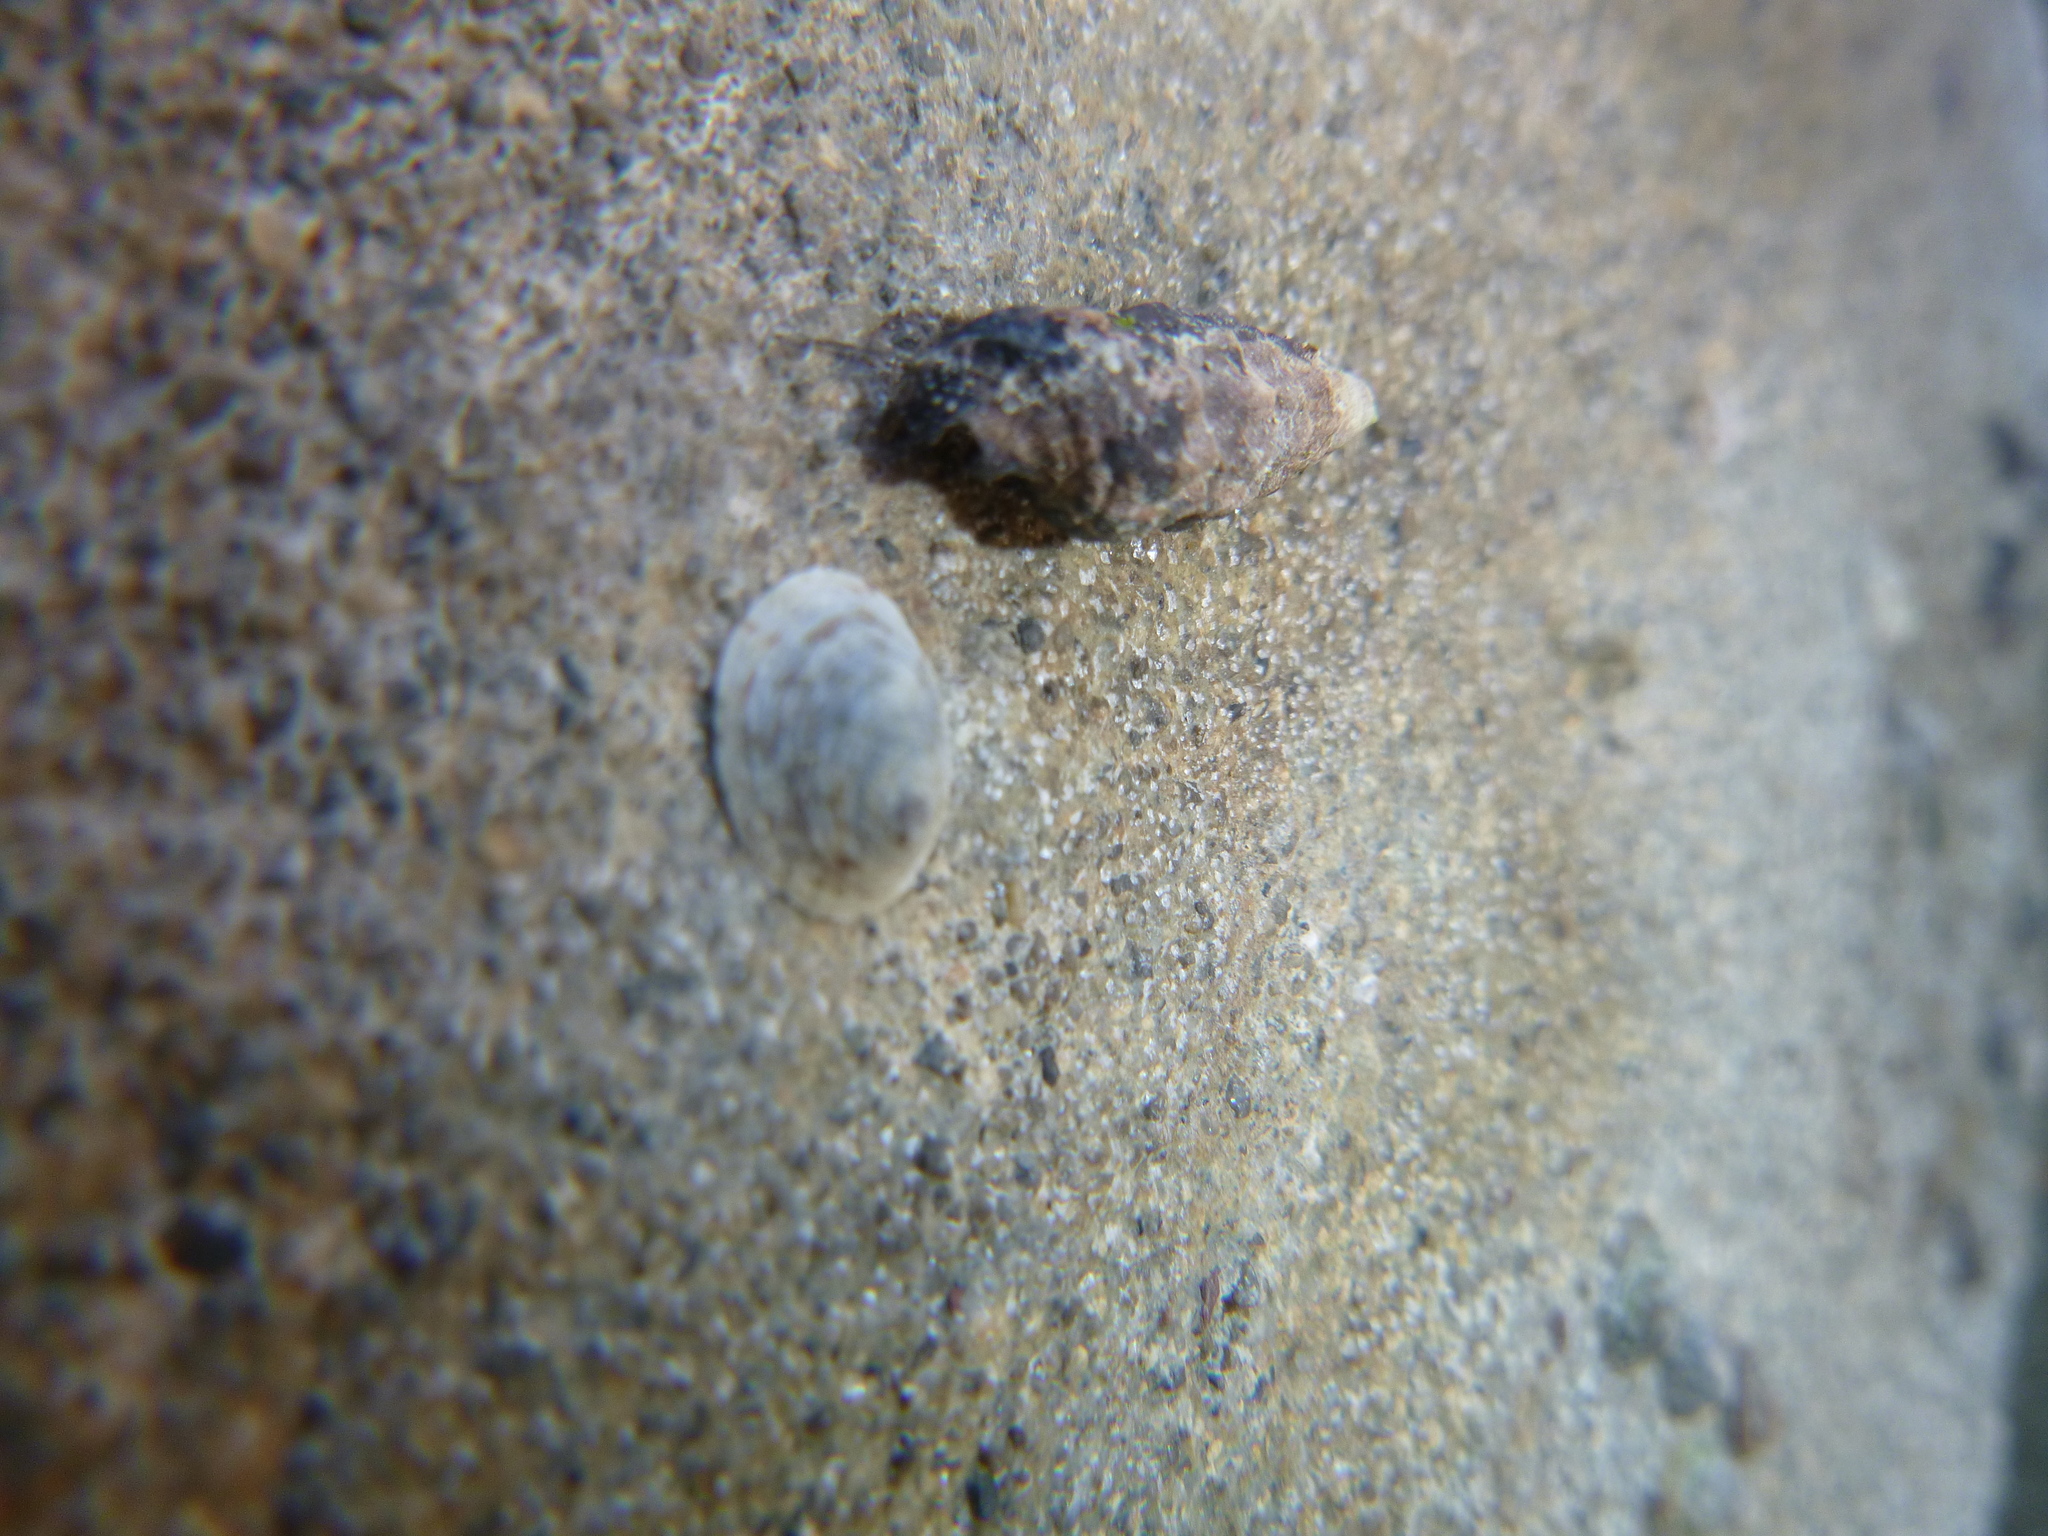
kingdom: Animalia
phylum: Mollusca
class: Gastropoda
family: Lottiidae
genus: Notoacmea
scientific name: Notoacmea rapida
